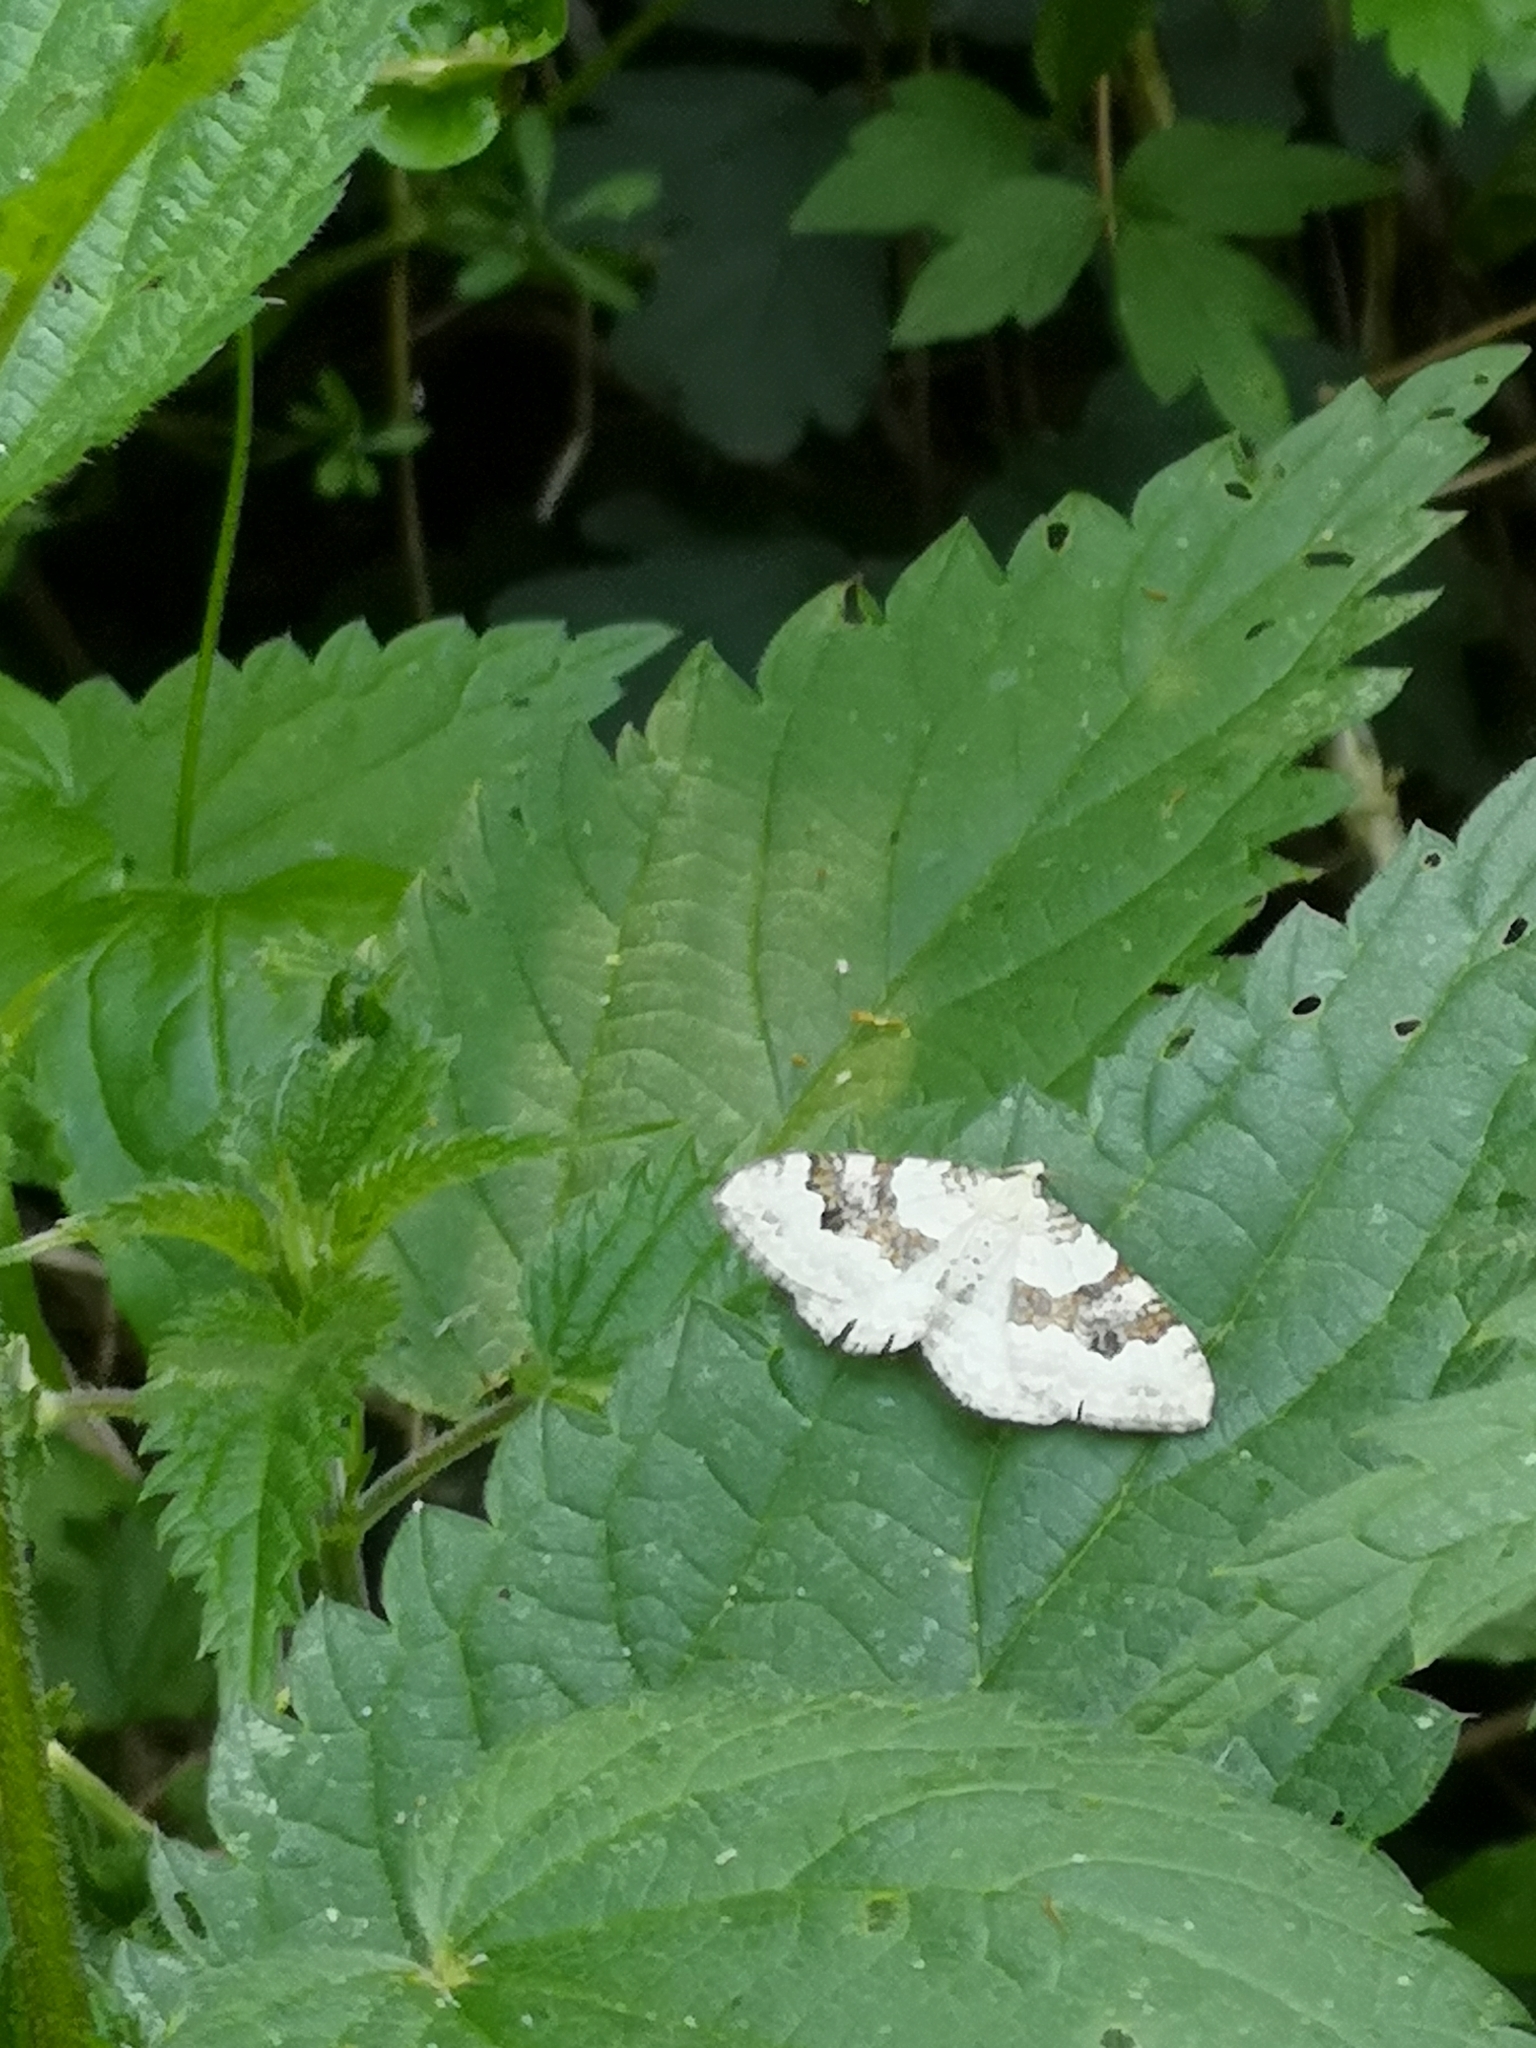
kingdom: Animalia
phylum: Arthropoda
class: Insecta
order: Lepidoptera
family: Geometridae
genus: Xanthorhoe
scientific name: Xanthorhoe montanata
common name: Silver-ground carpet
